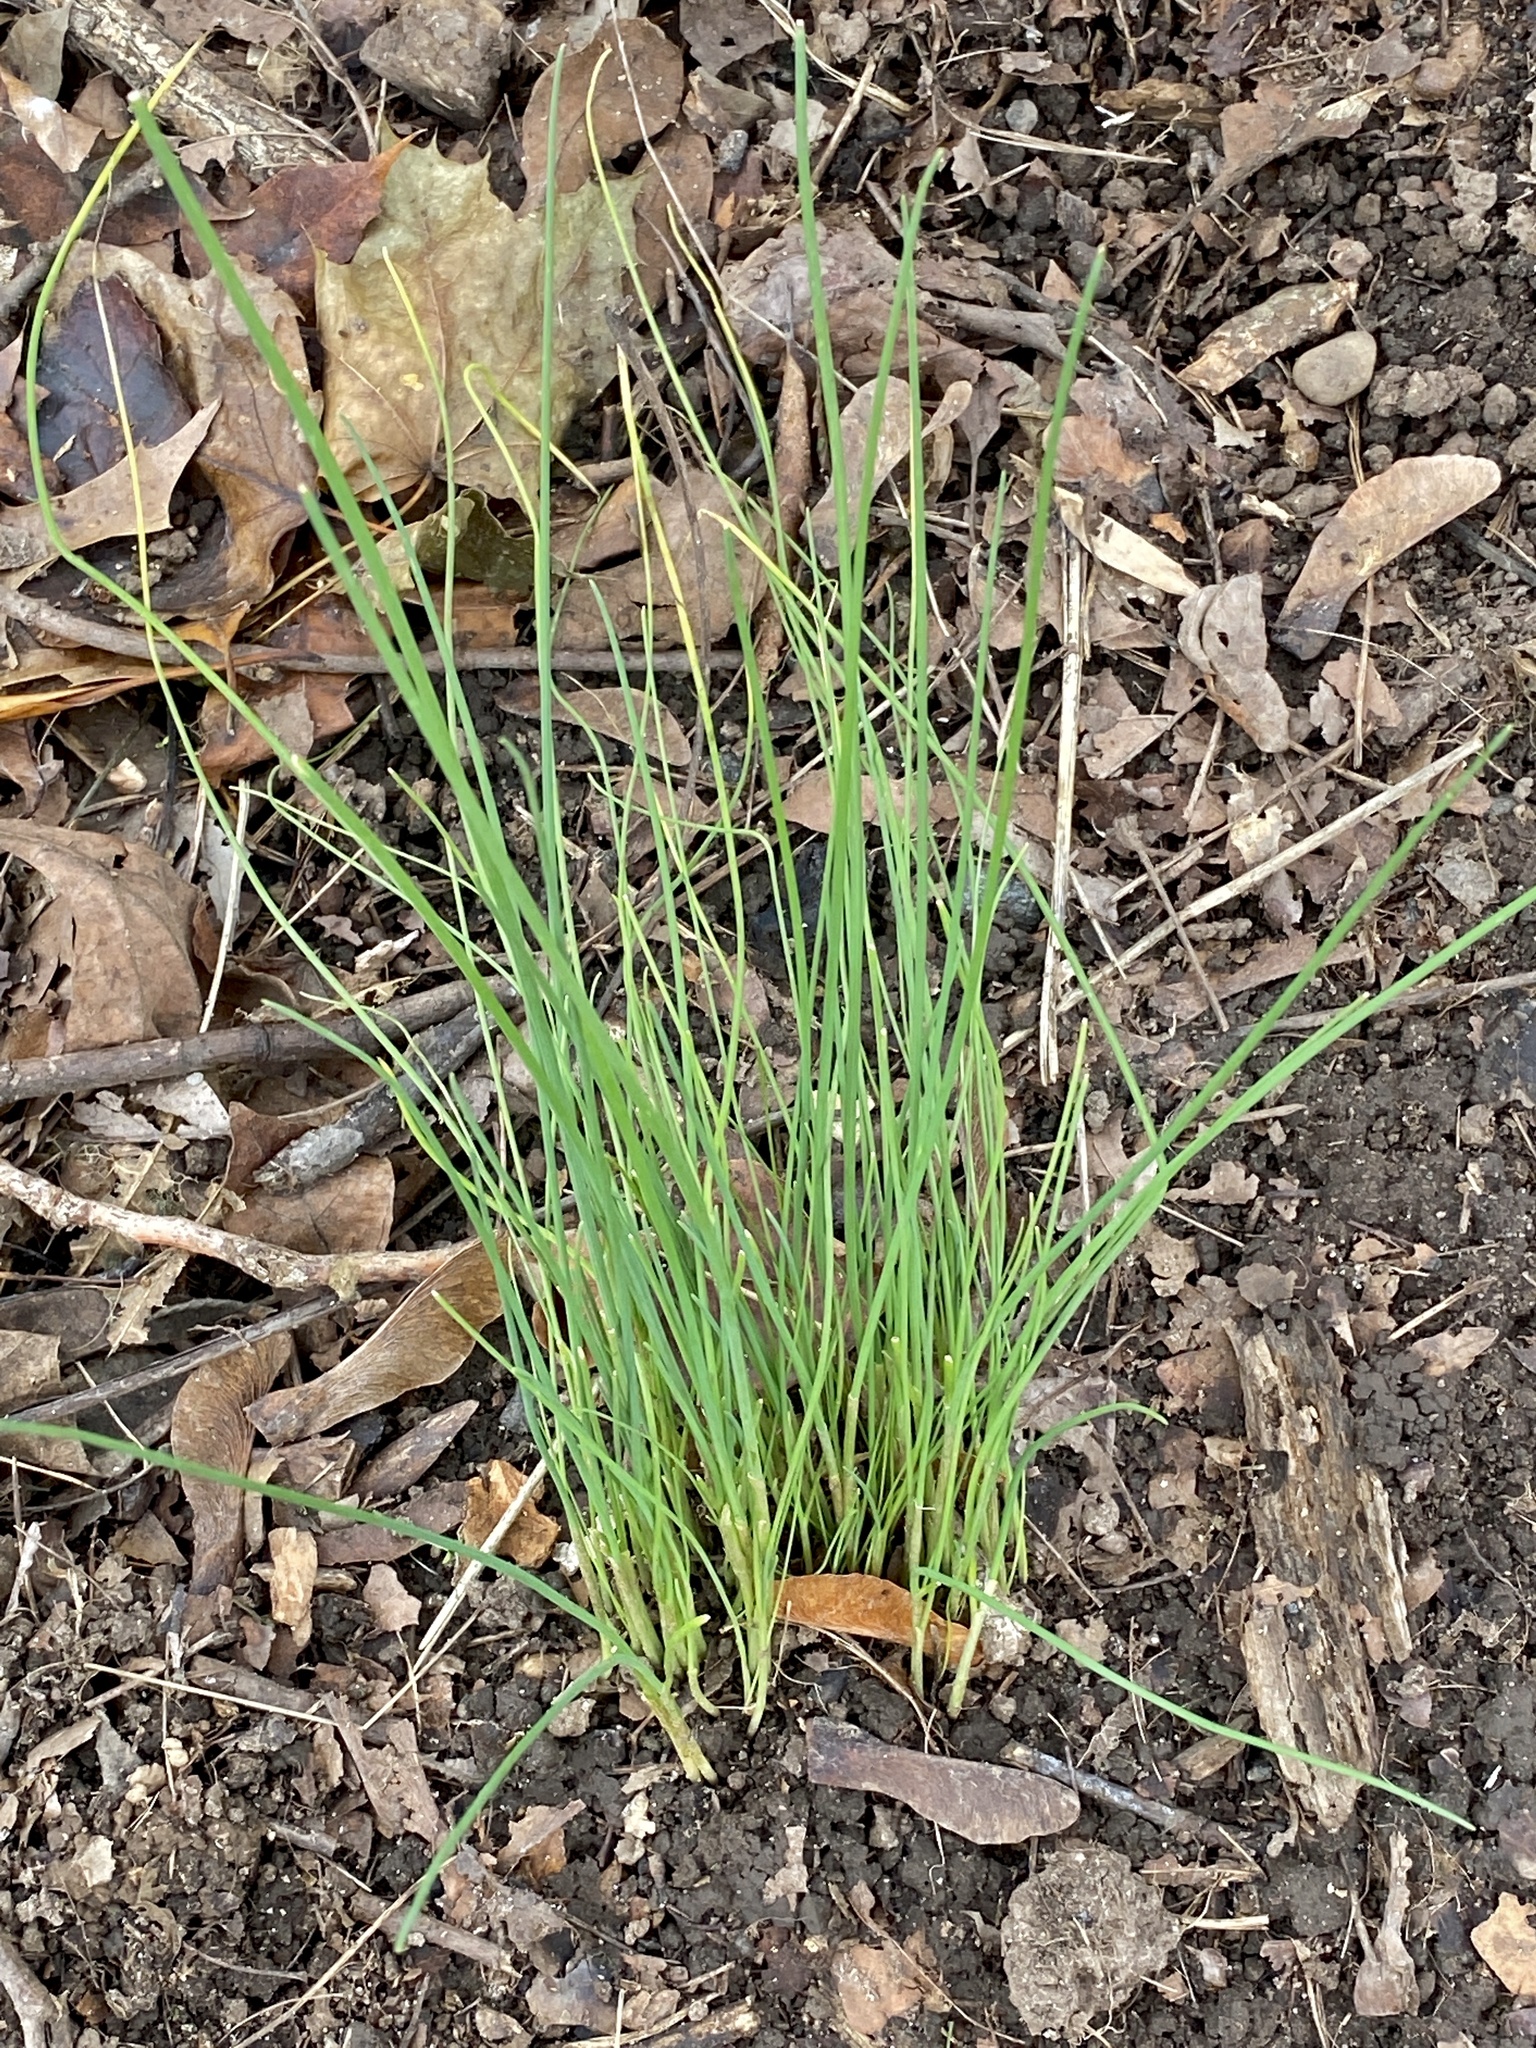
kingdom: Plantae
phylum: Tracheophyta
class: Liliopsida
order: Asparagales
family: Amaryllidaceae
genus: Allium
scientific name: Allium vineale
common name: Crow garlic
